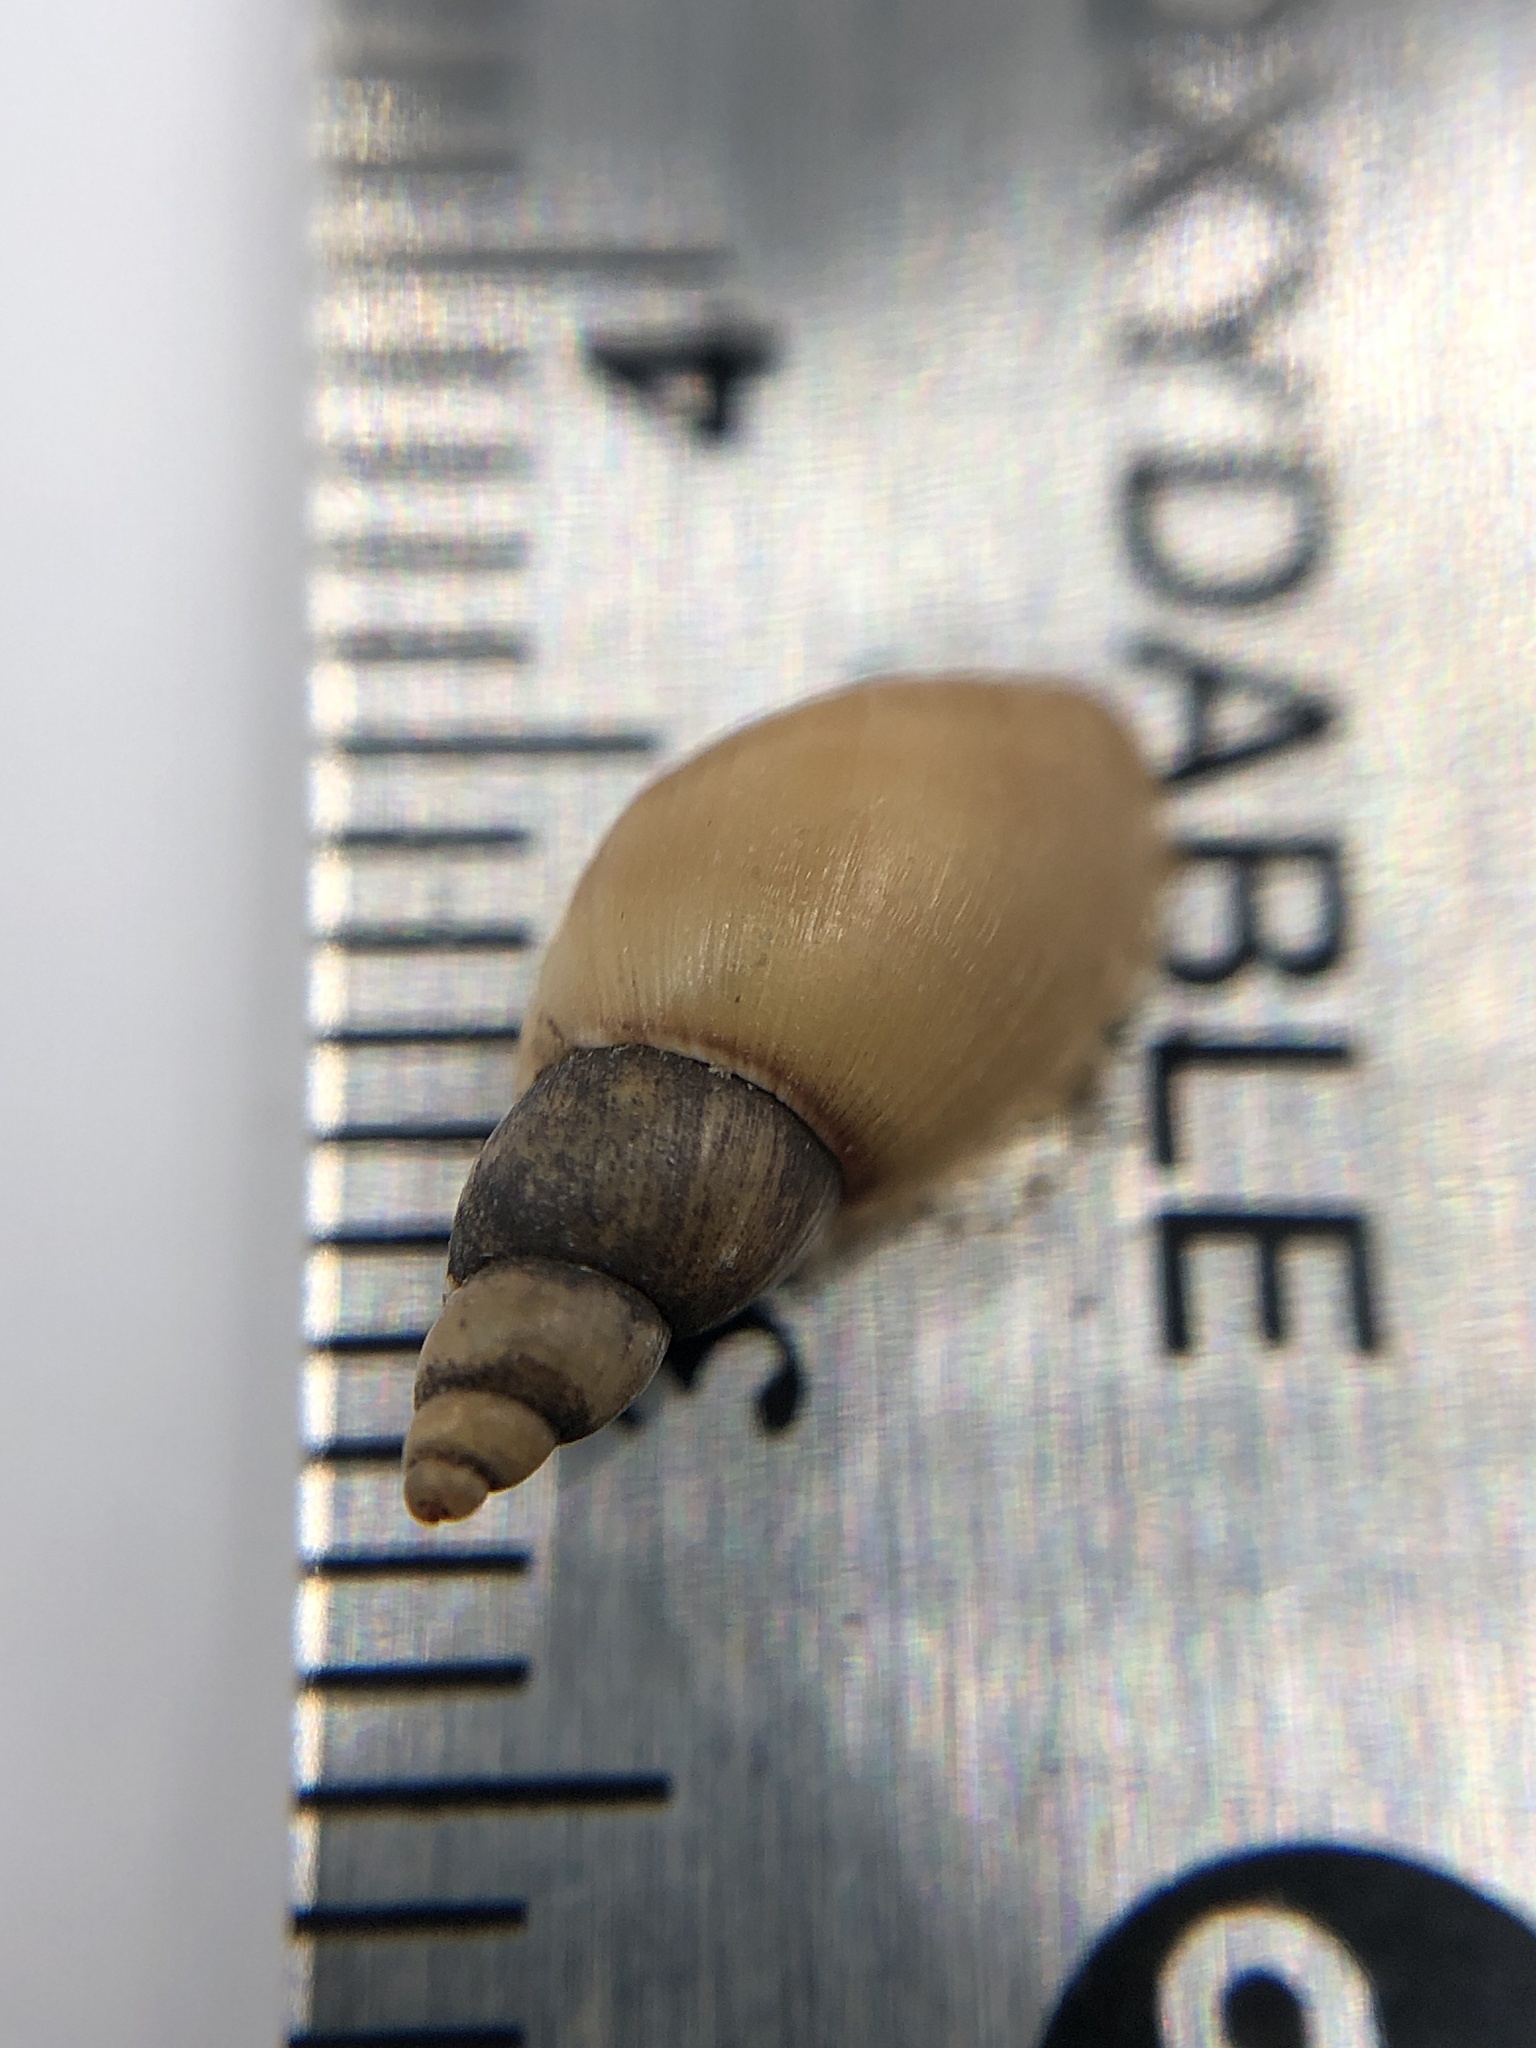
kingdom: Animalia
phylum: Mollusca
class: Gastropoda
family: Lymnaeidae
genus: Ladislavella
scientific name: Ladislavella elodes
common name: Marsh pondsnail
